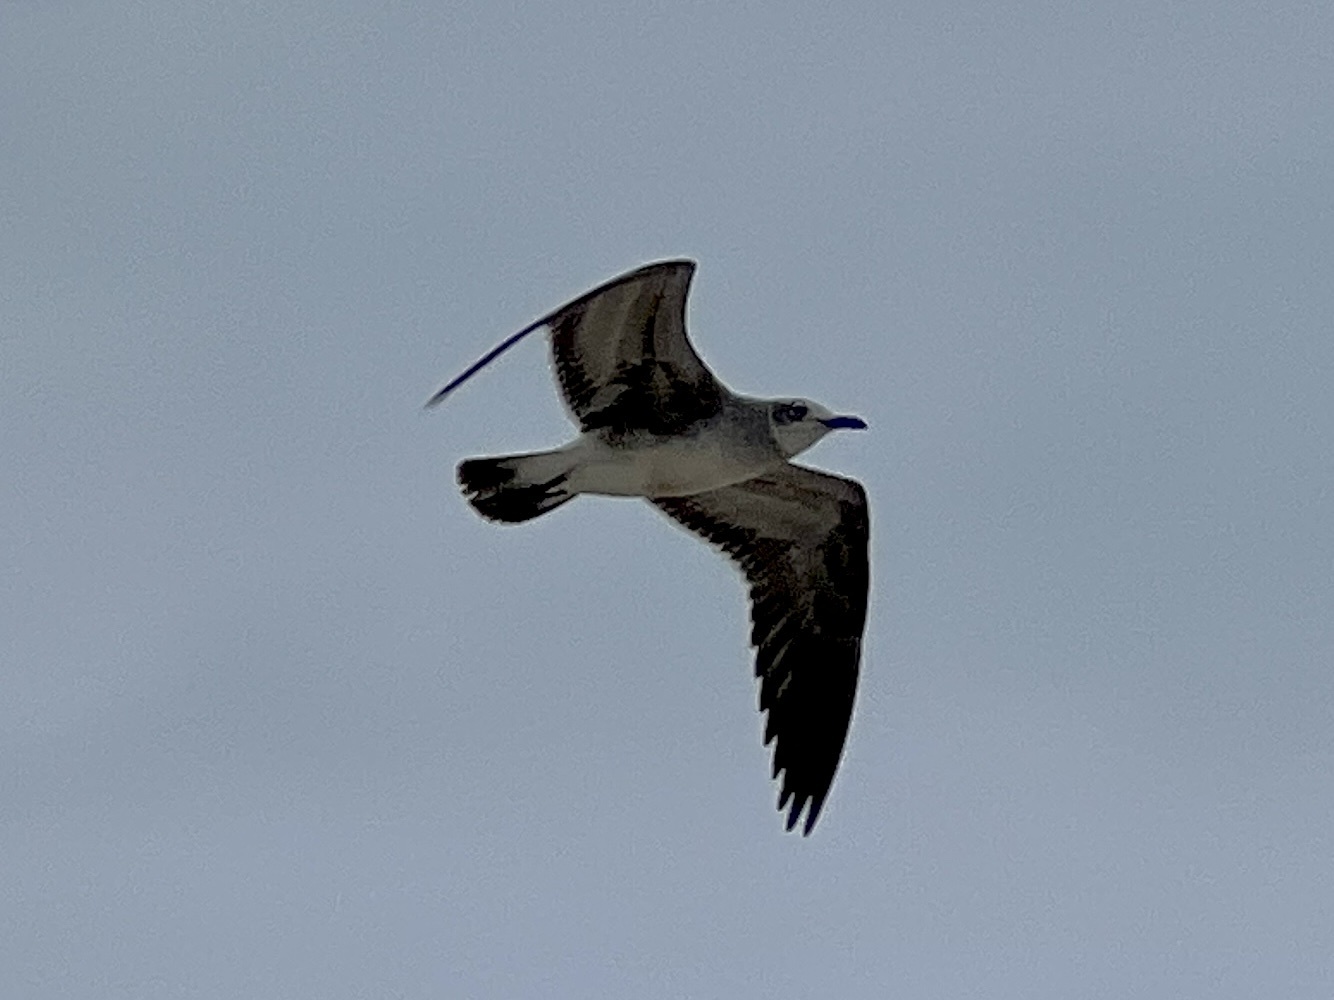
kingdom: Animalia
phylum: Chordata
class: Aves
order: Charadriiformes
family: Laridae
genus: Leucophaeus
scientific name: Leucophaeus atricilla
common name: Laughing gull
